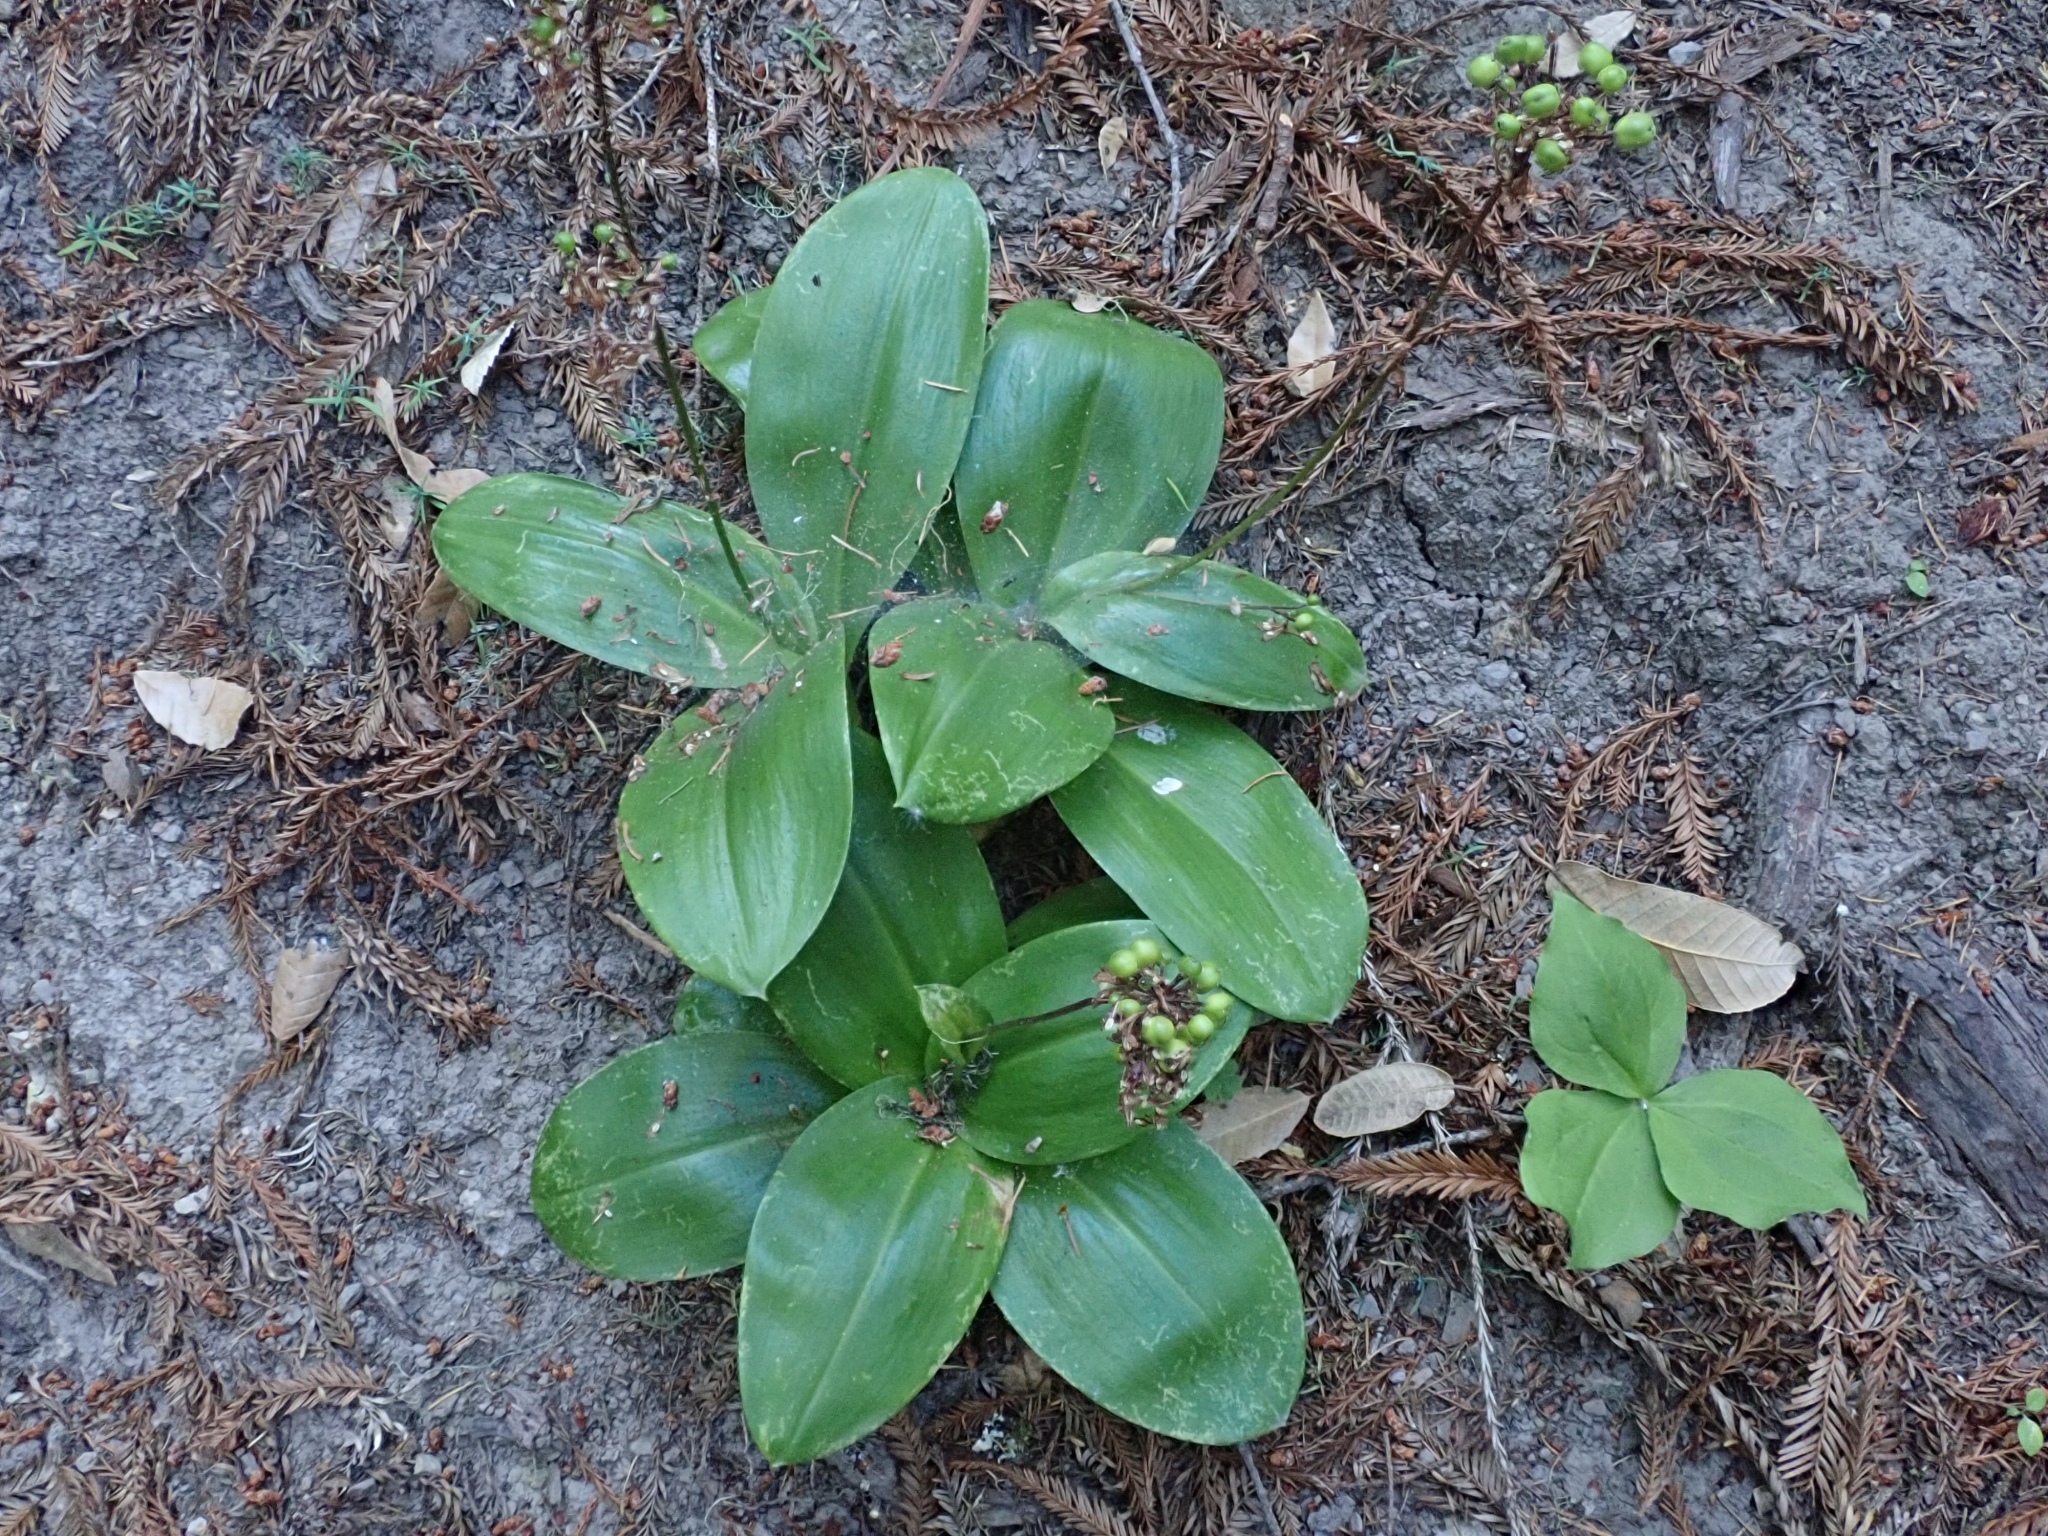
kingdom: Plantae
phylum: Tracheophyta
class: Liliopsida
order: Liliales
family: Liliaceae
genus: Clintonia
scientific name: Clintonia andrewsiana
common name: Red clintonia
